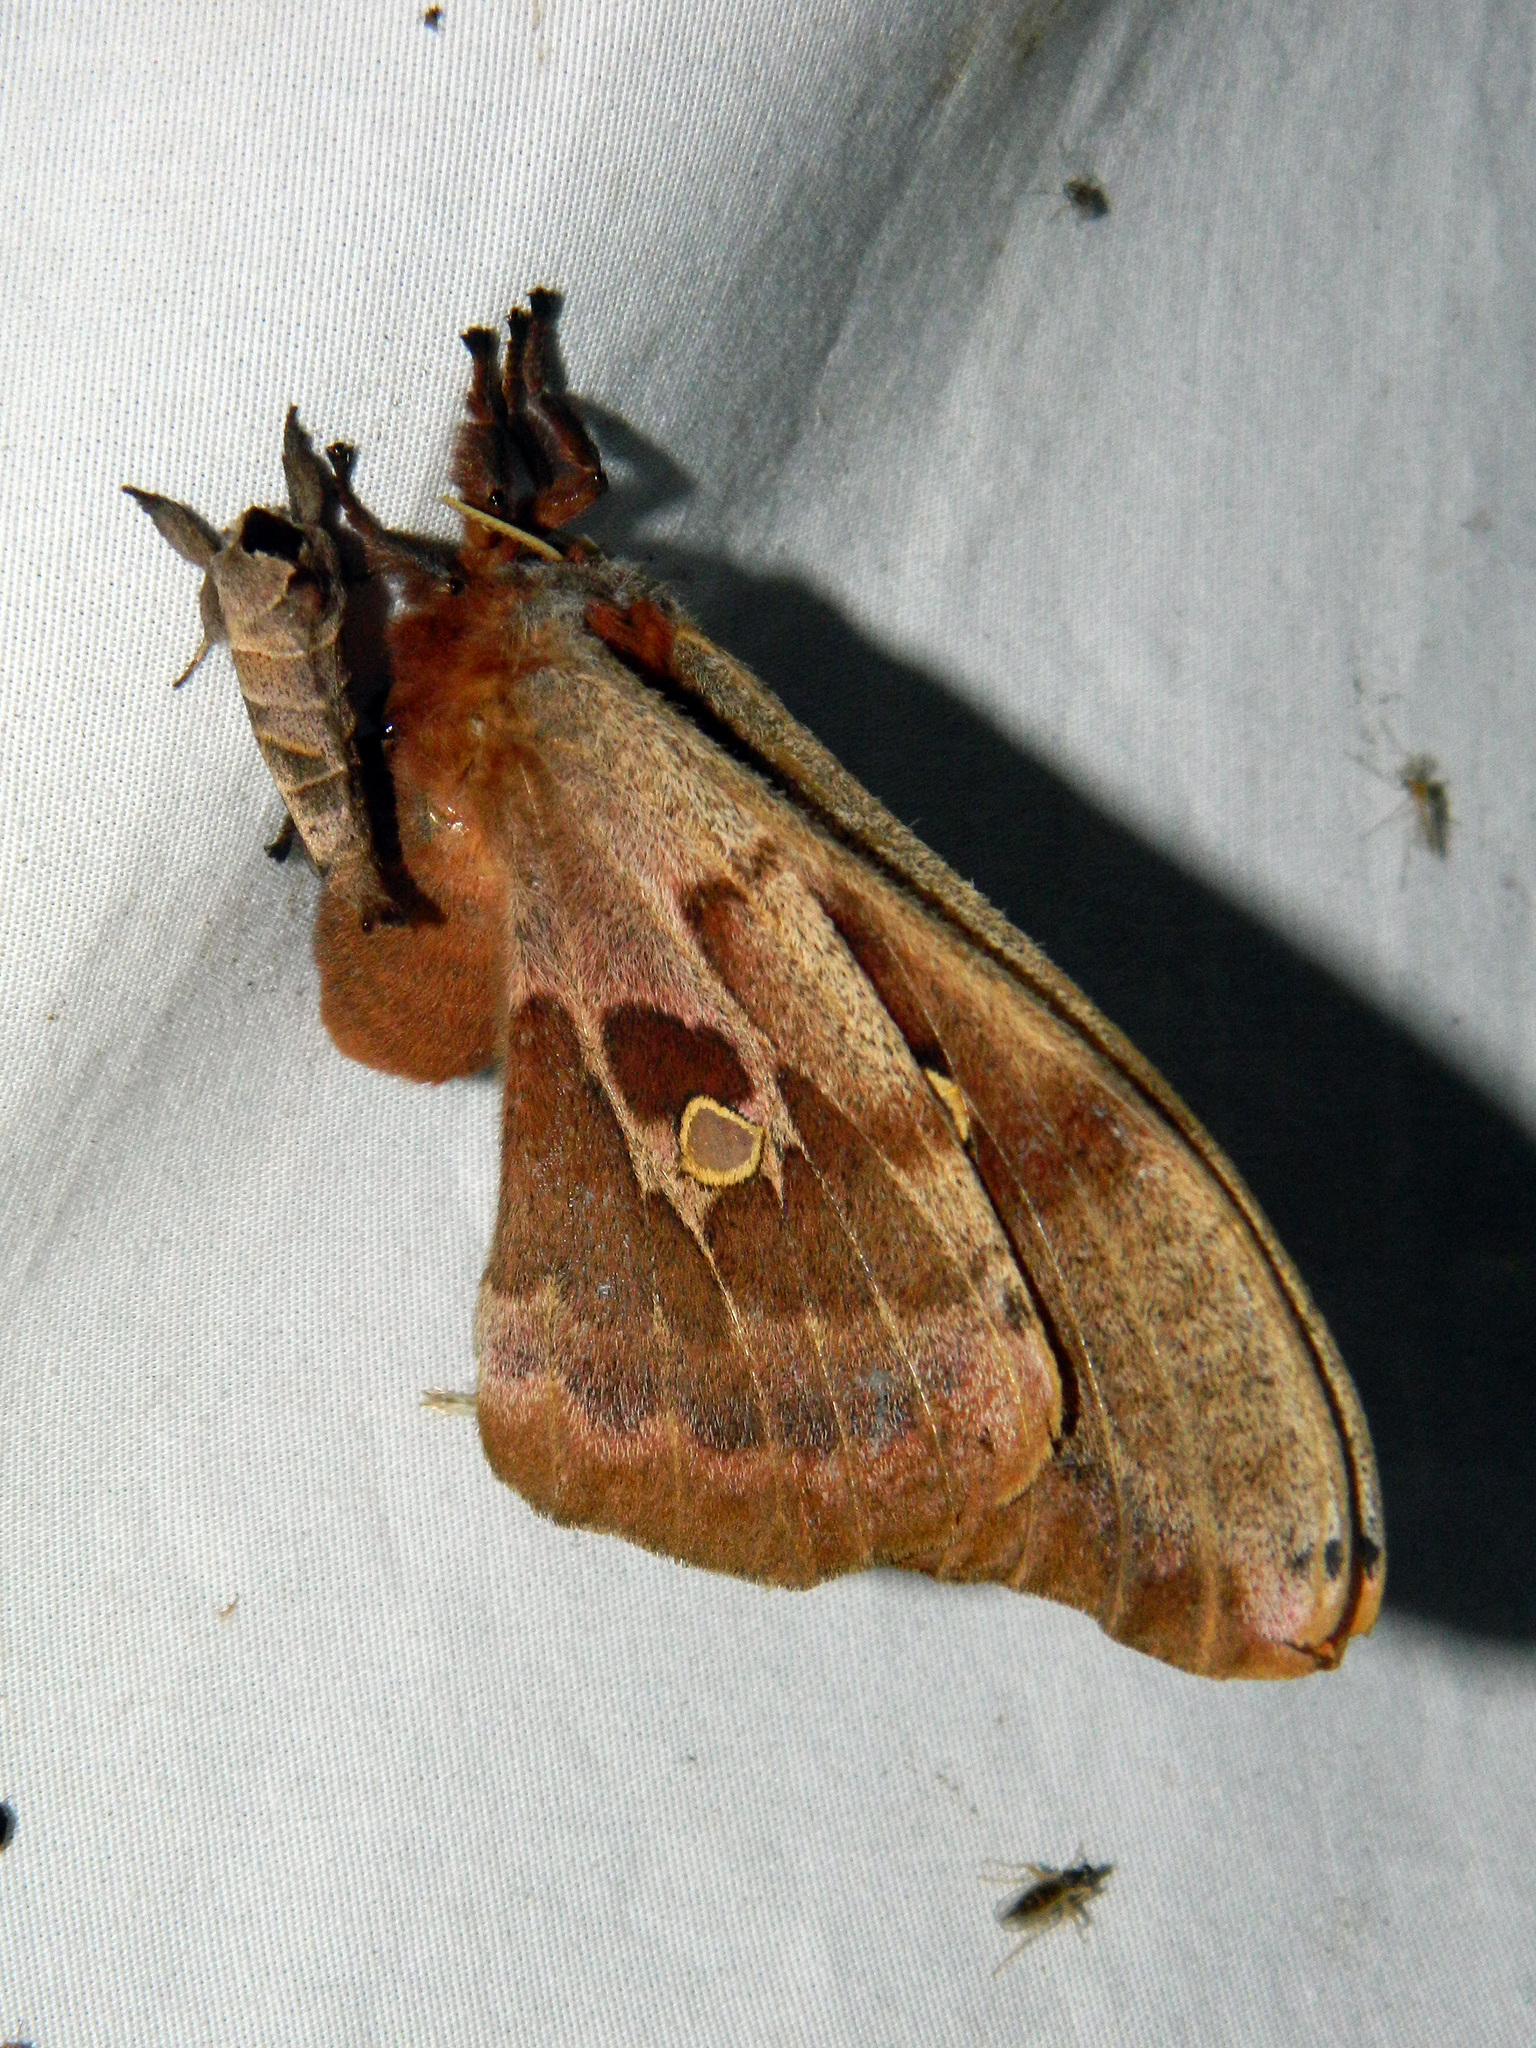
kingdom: Animalia
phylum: Arthropoda
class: Insecta
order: Lepidoptera
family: Saturniidae
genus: Antheraea
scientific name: Antheraea polyphemus
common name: Polyphemus moth
